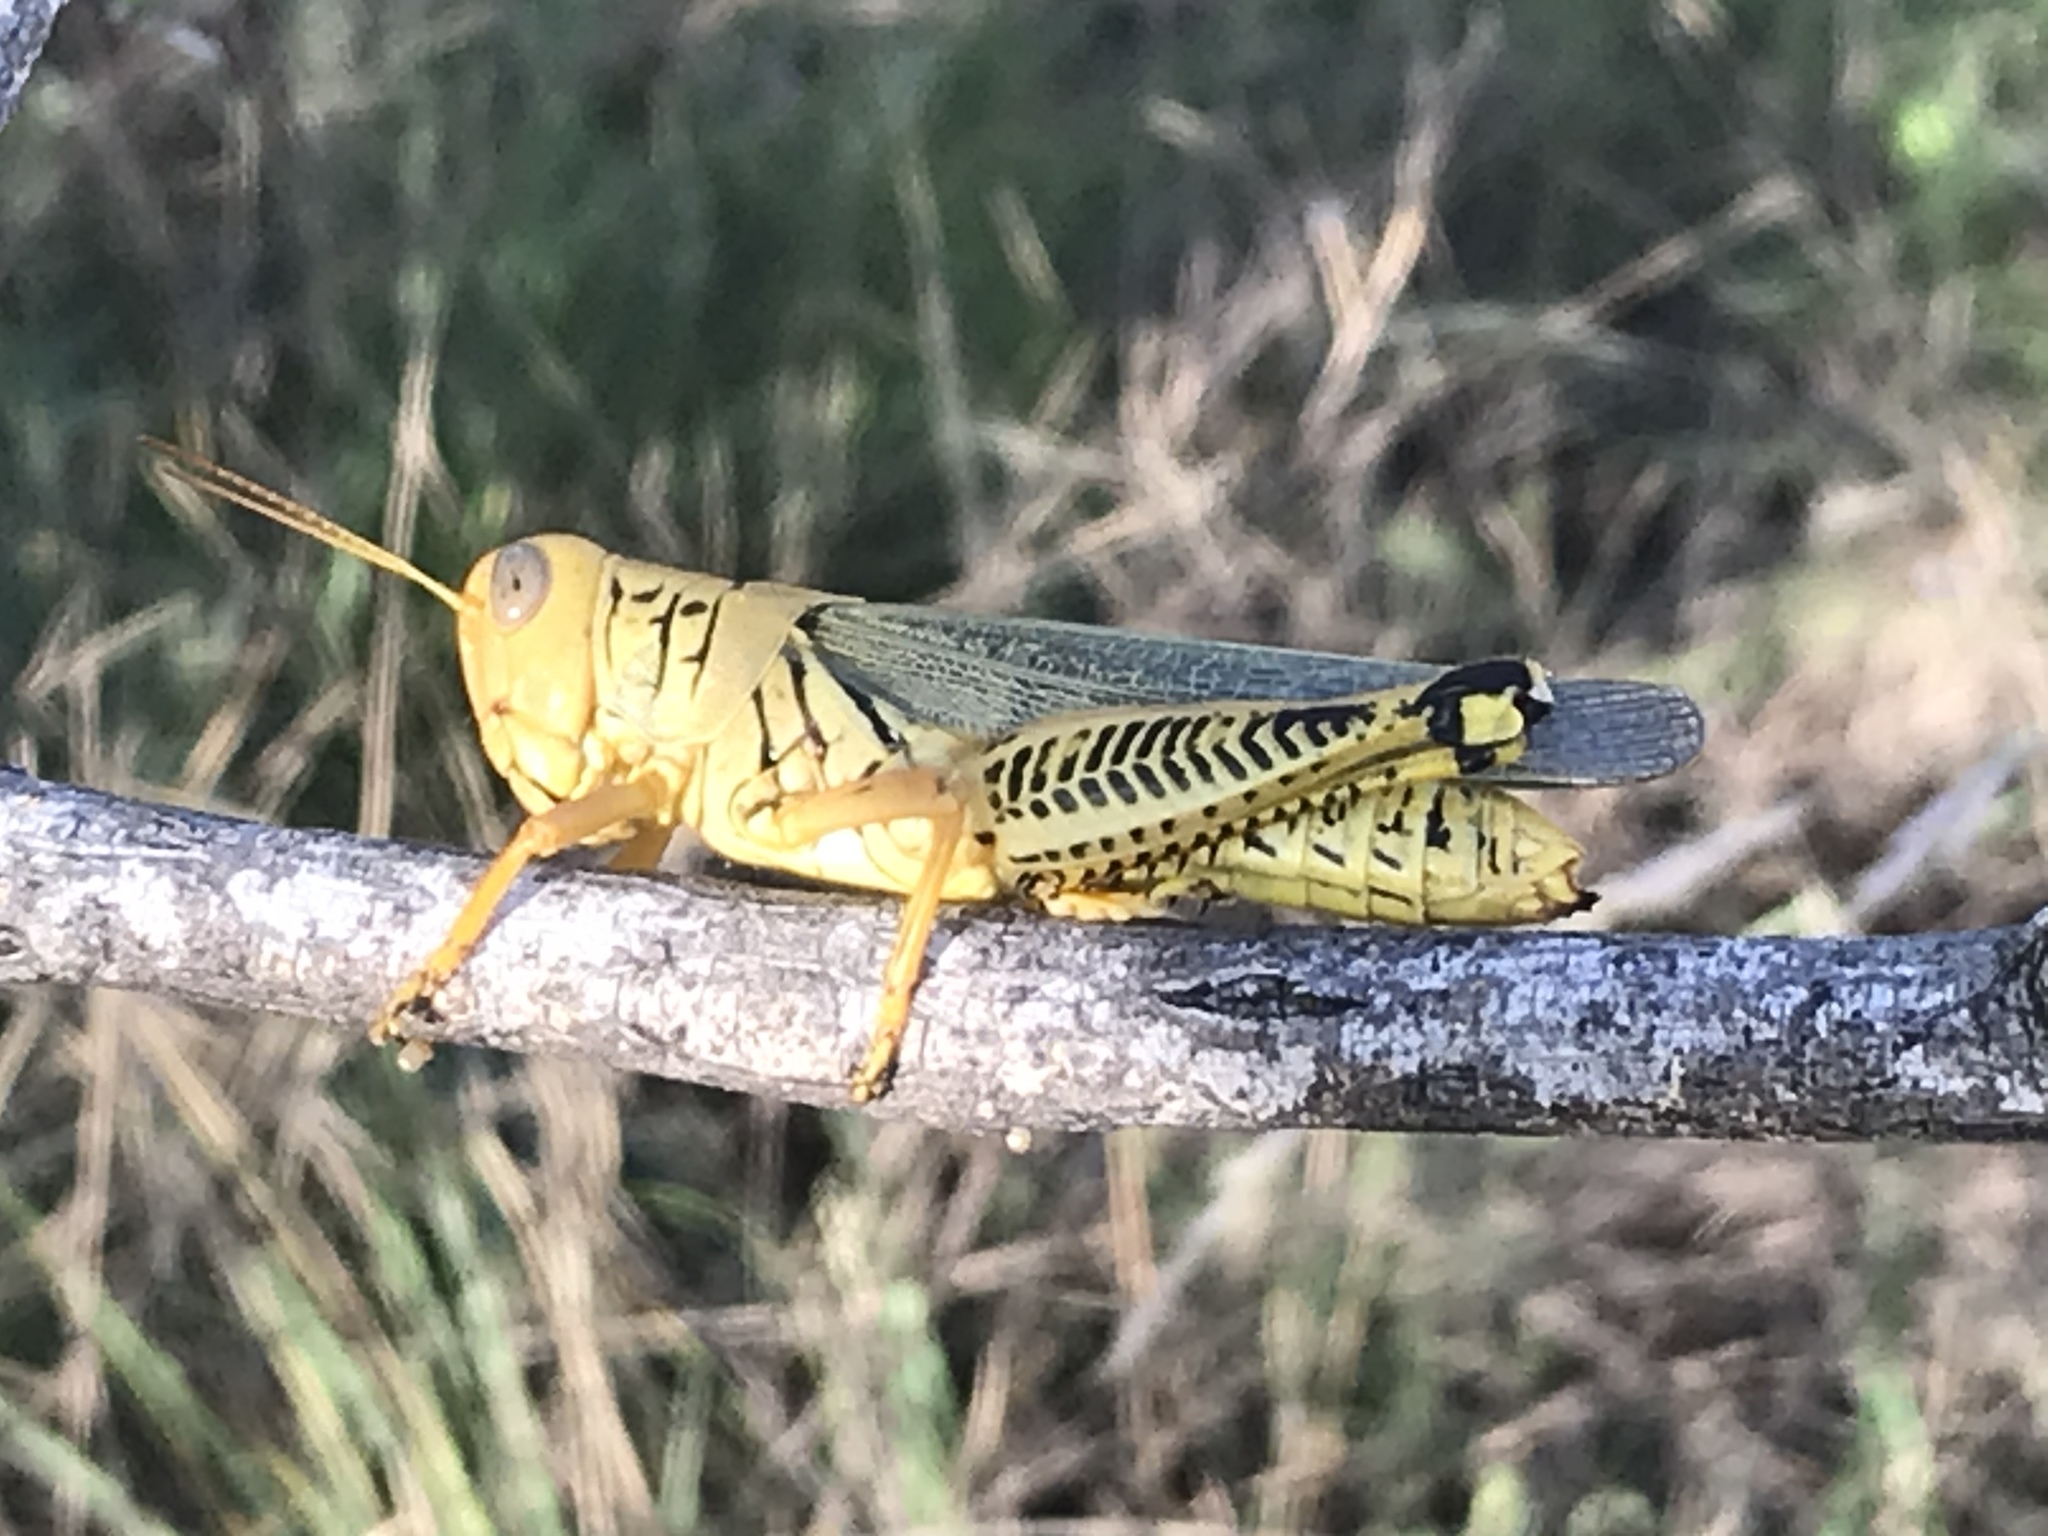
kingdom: Animalia
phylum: Arthropoda
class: Insecta
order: Orthoptera
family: Acrididae
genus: Melanoplus
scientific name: Melanoplus differentialis
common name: Differential grasshopper
